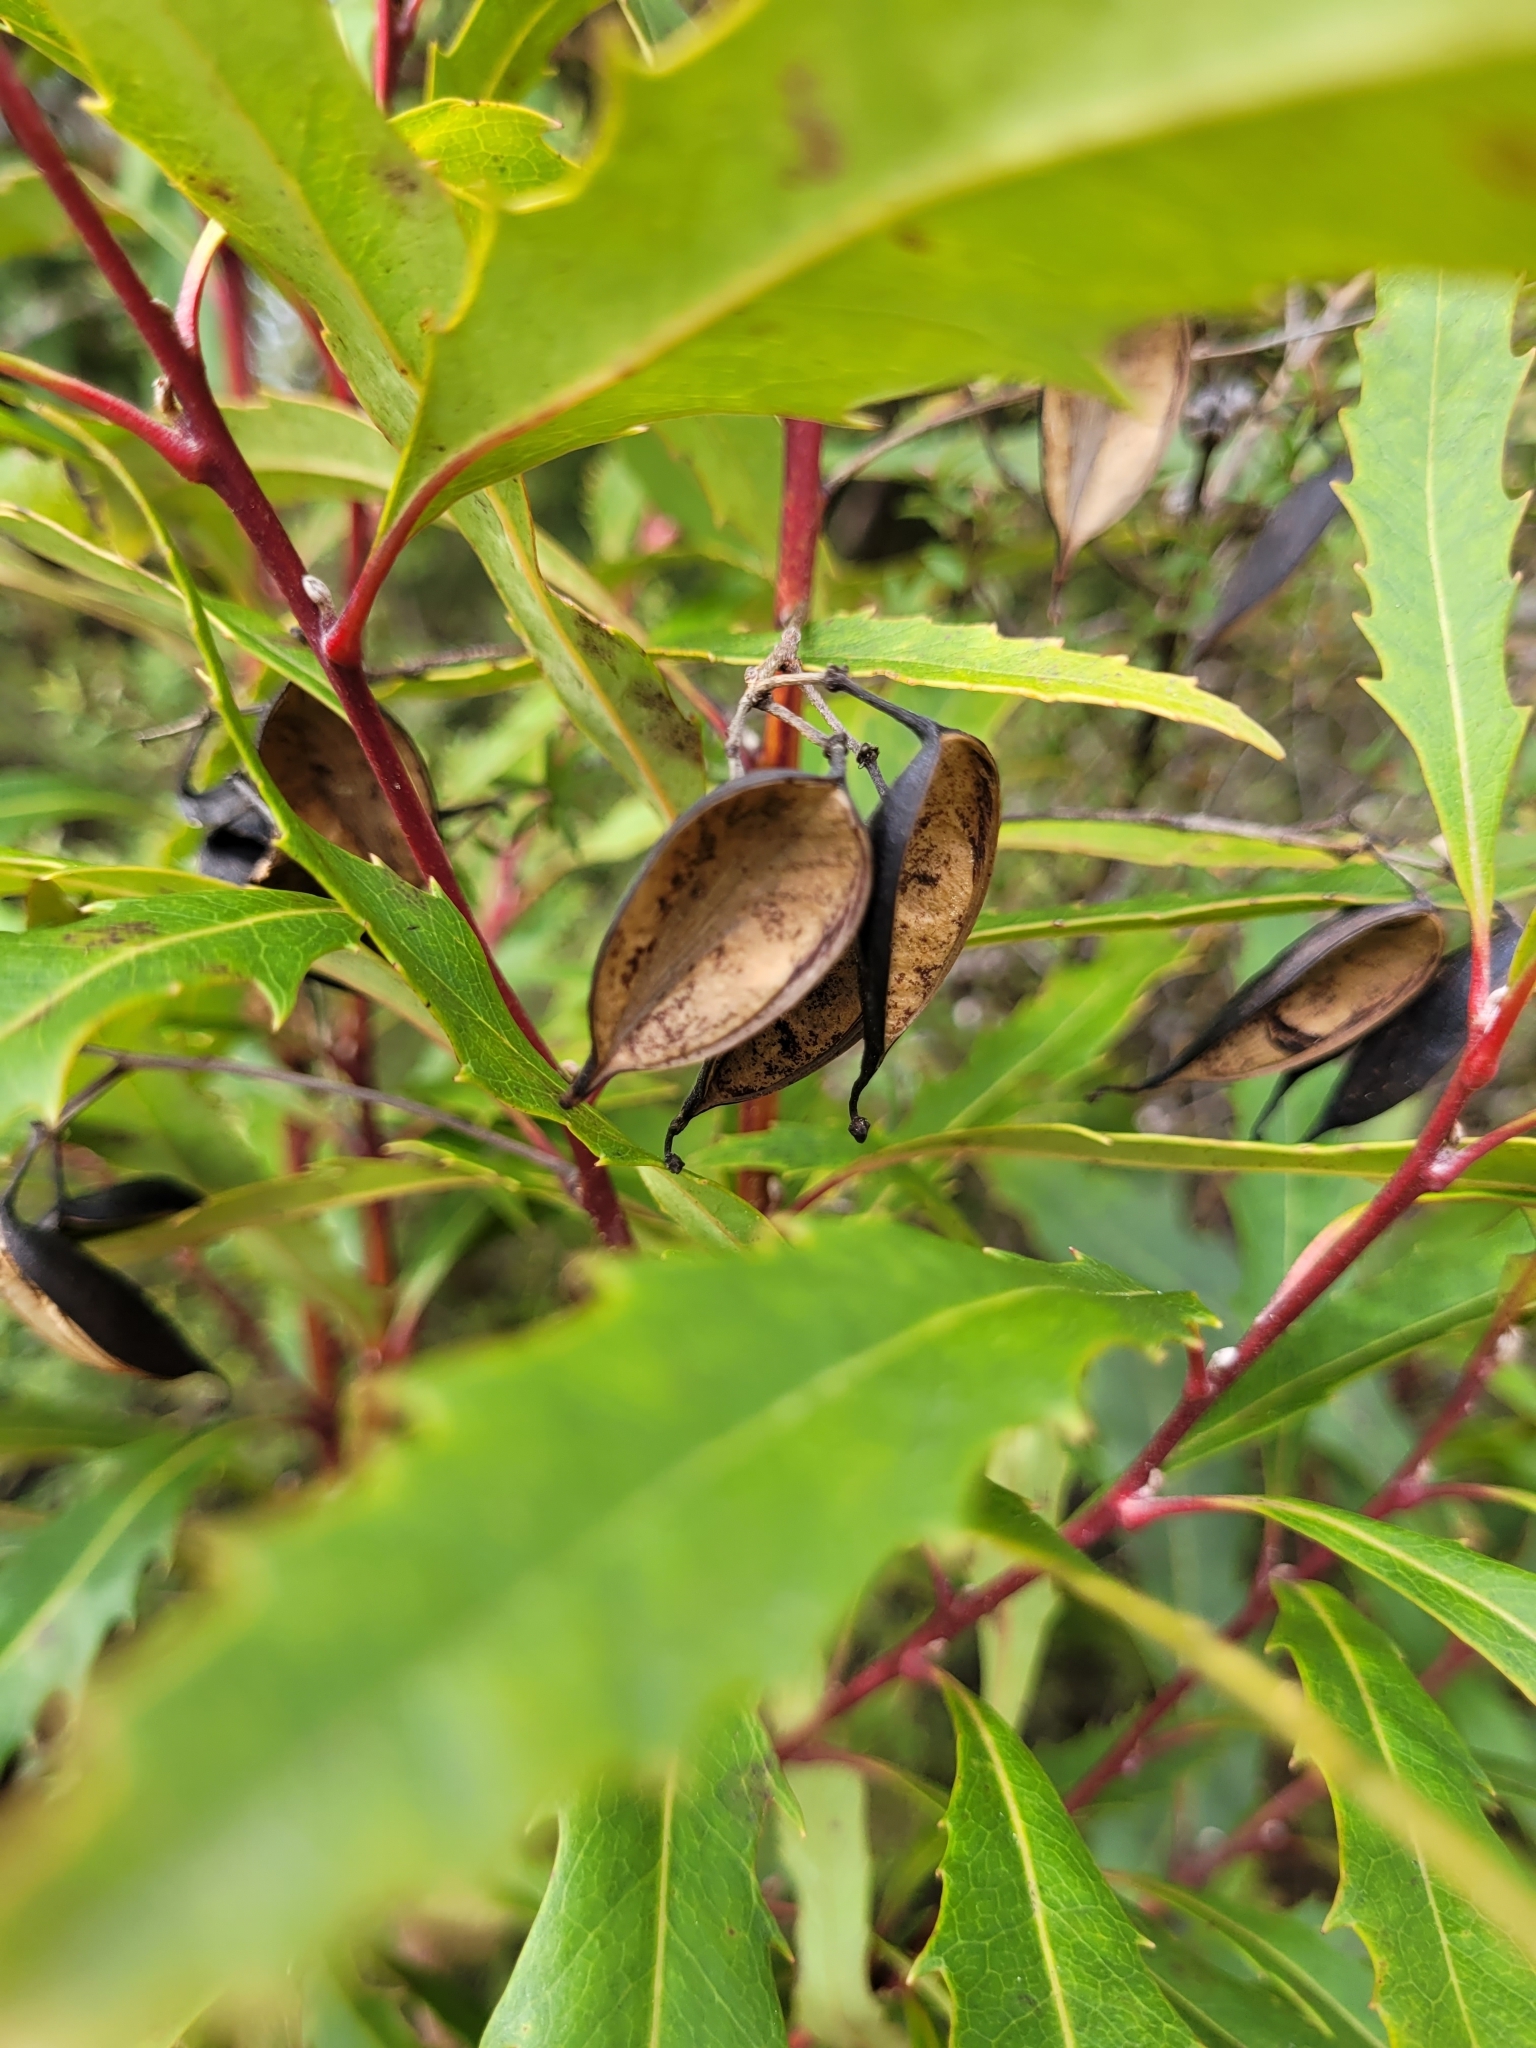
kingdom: Plantae
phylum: Tracheophyta
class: Magnoliopsida
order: Proteales
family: Proteaceae
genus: Lomatia
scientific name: Lomatia fraseri
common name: Forest lomatia
